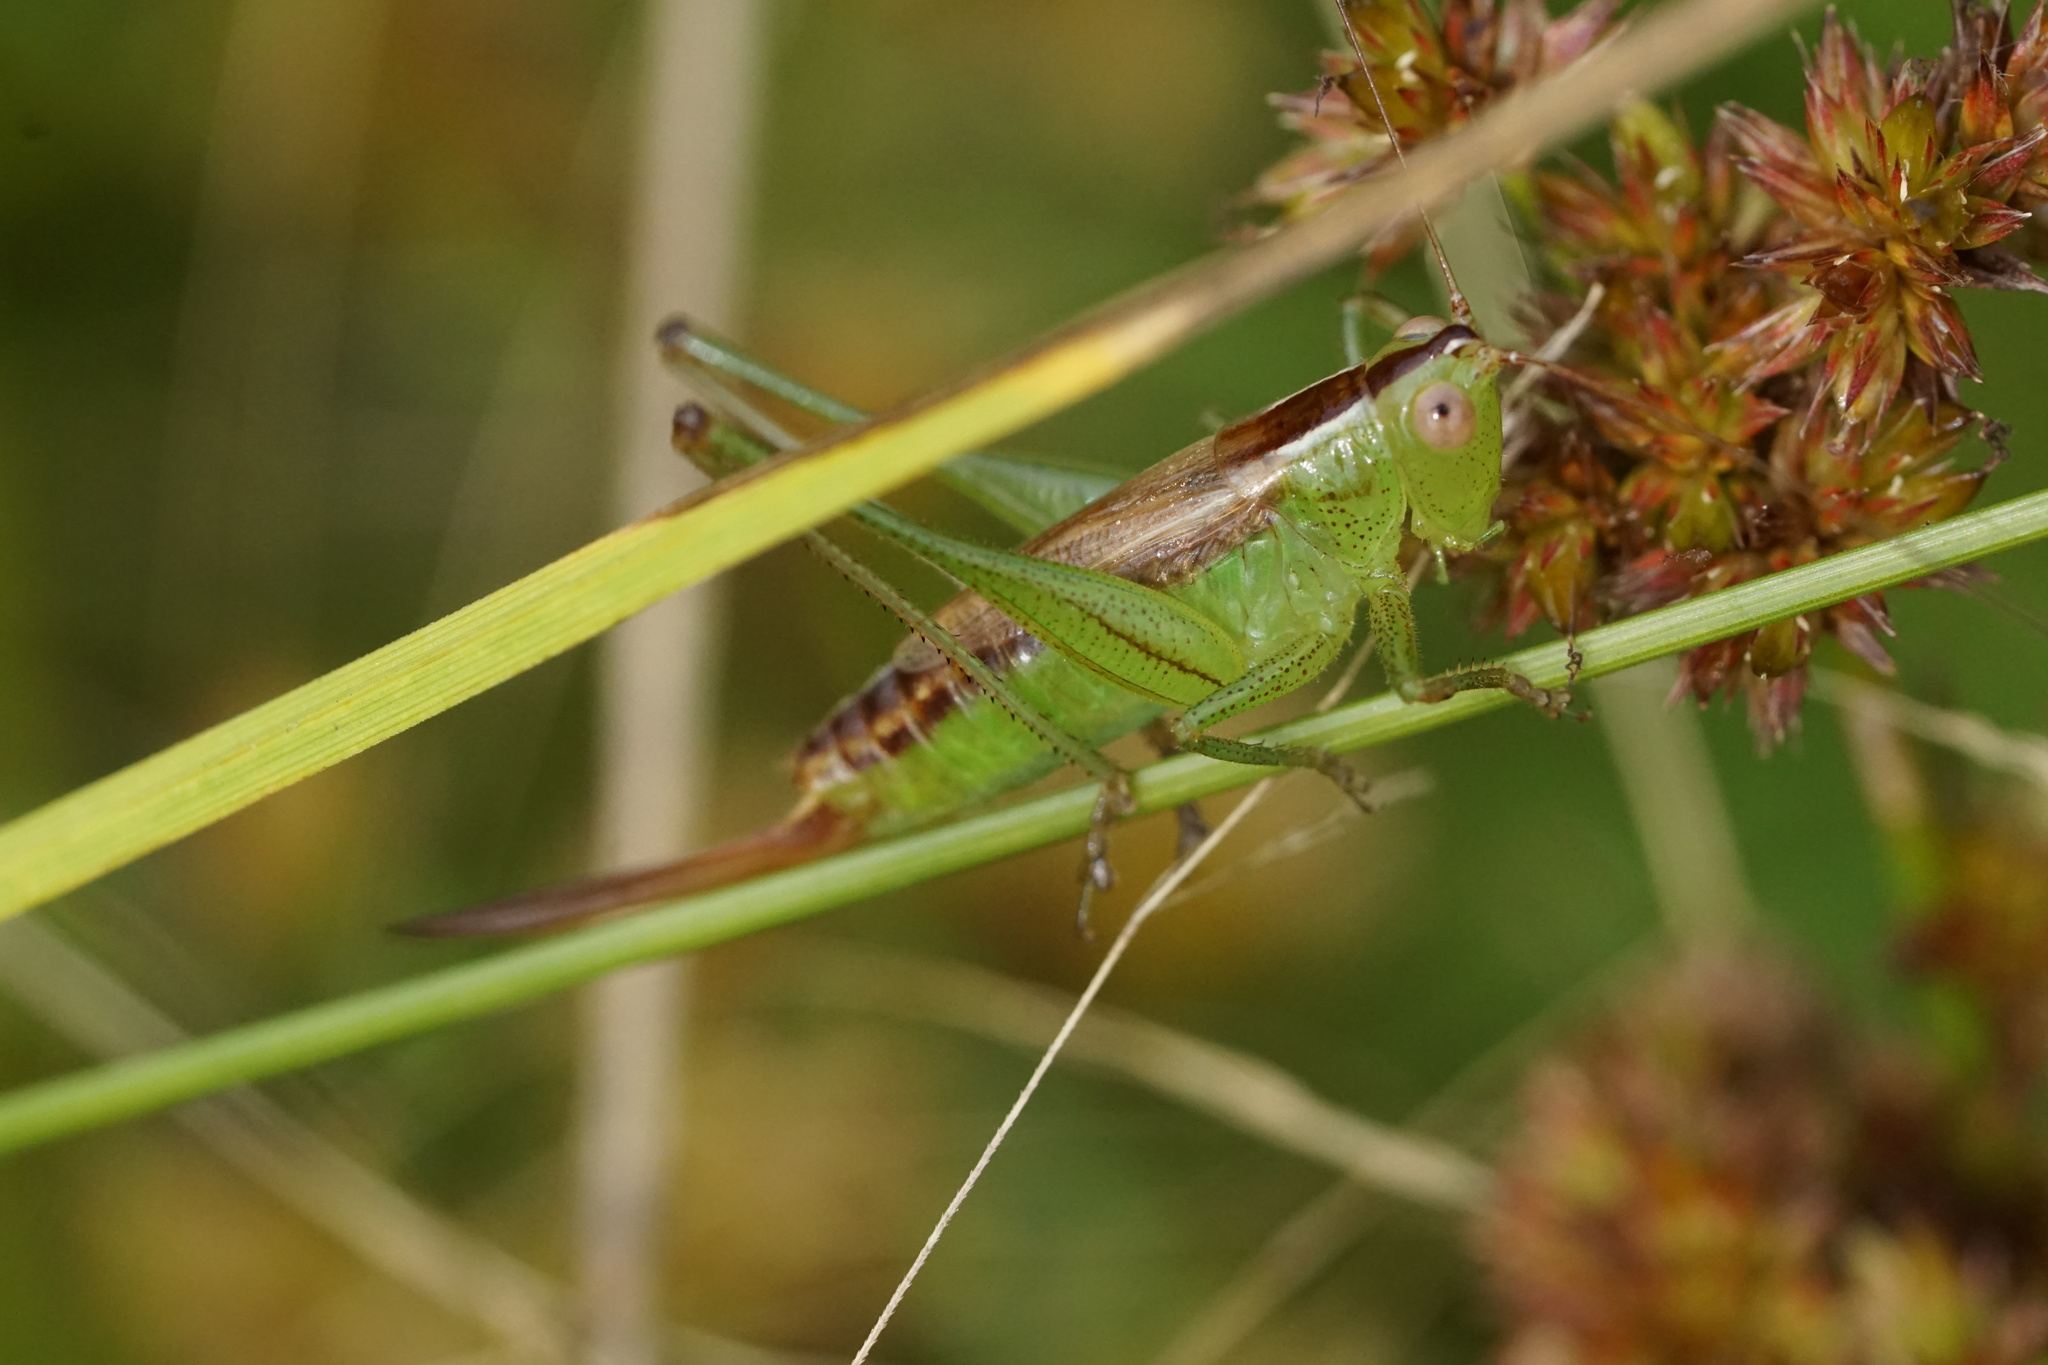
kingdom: Animalia
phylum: Arthropoda
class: Insecta
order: Orthoptera
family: Tettigoniidae
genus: Conocephalus
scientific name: Conocephalus brevipennis
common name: Short-winged meadow katydid
